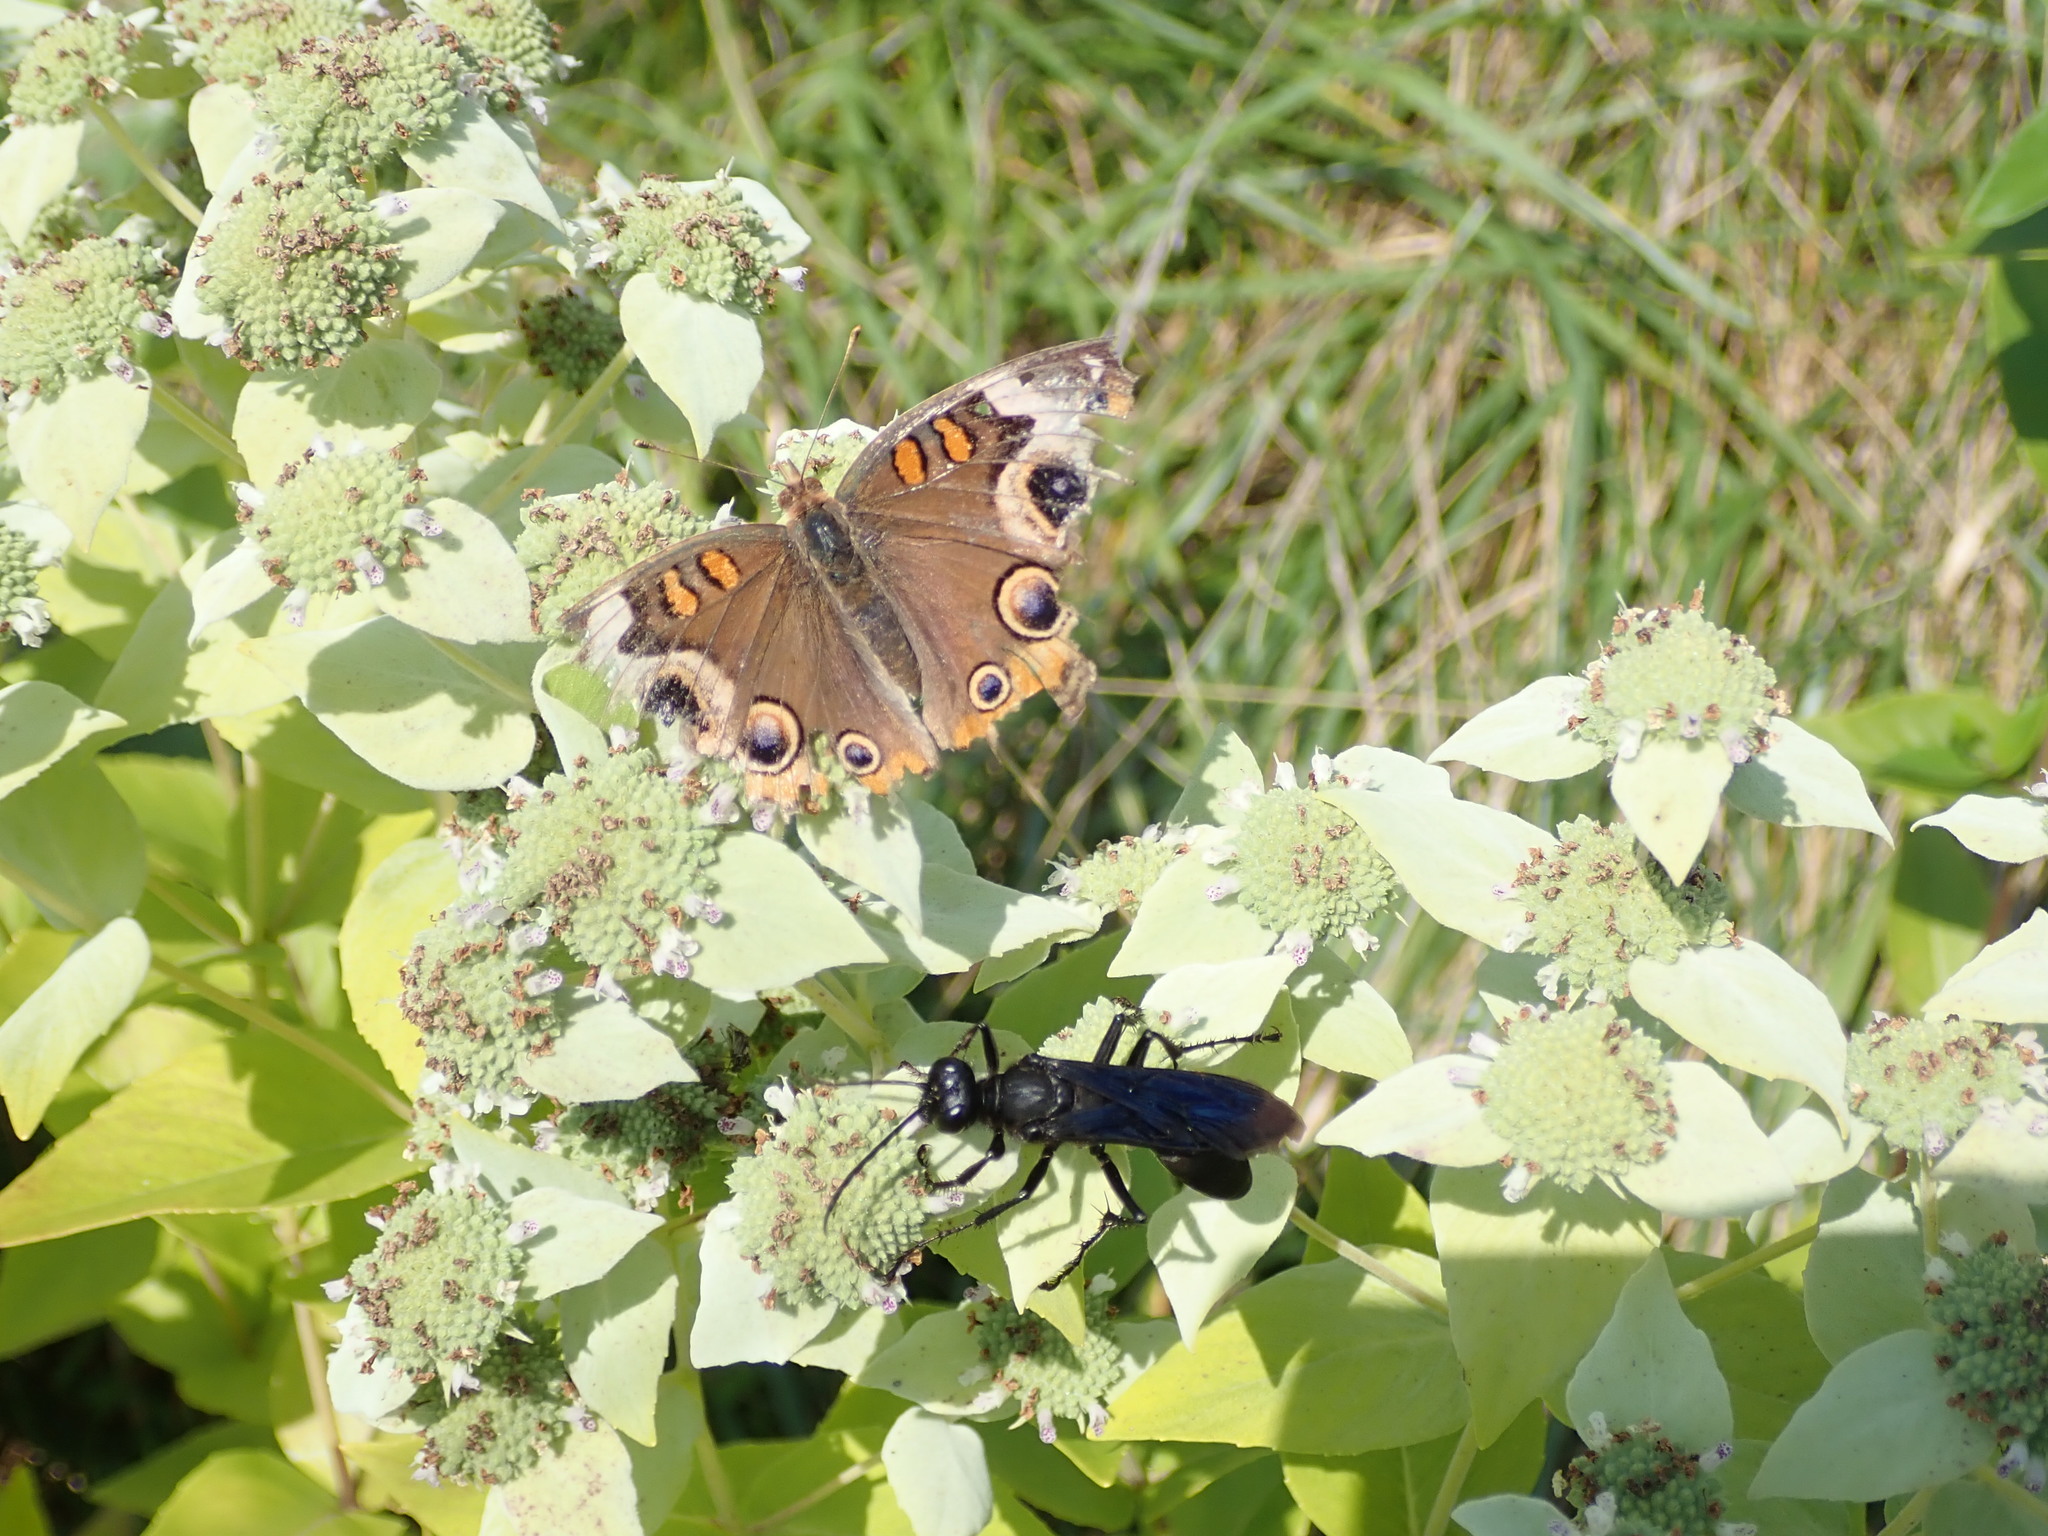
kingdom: Animalia
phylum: Arthropoda
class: Insecta
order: Lepidoptera
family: Nymphalidae
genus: Junonia
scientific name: Junonia coenia
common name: Common buckeye
